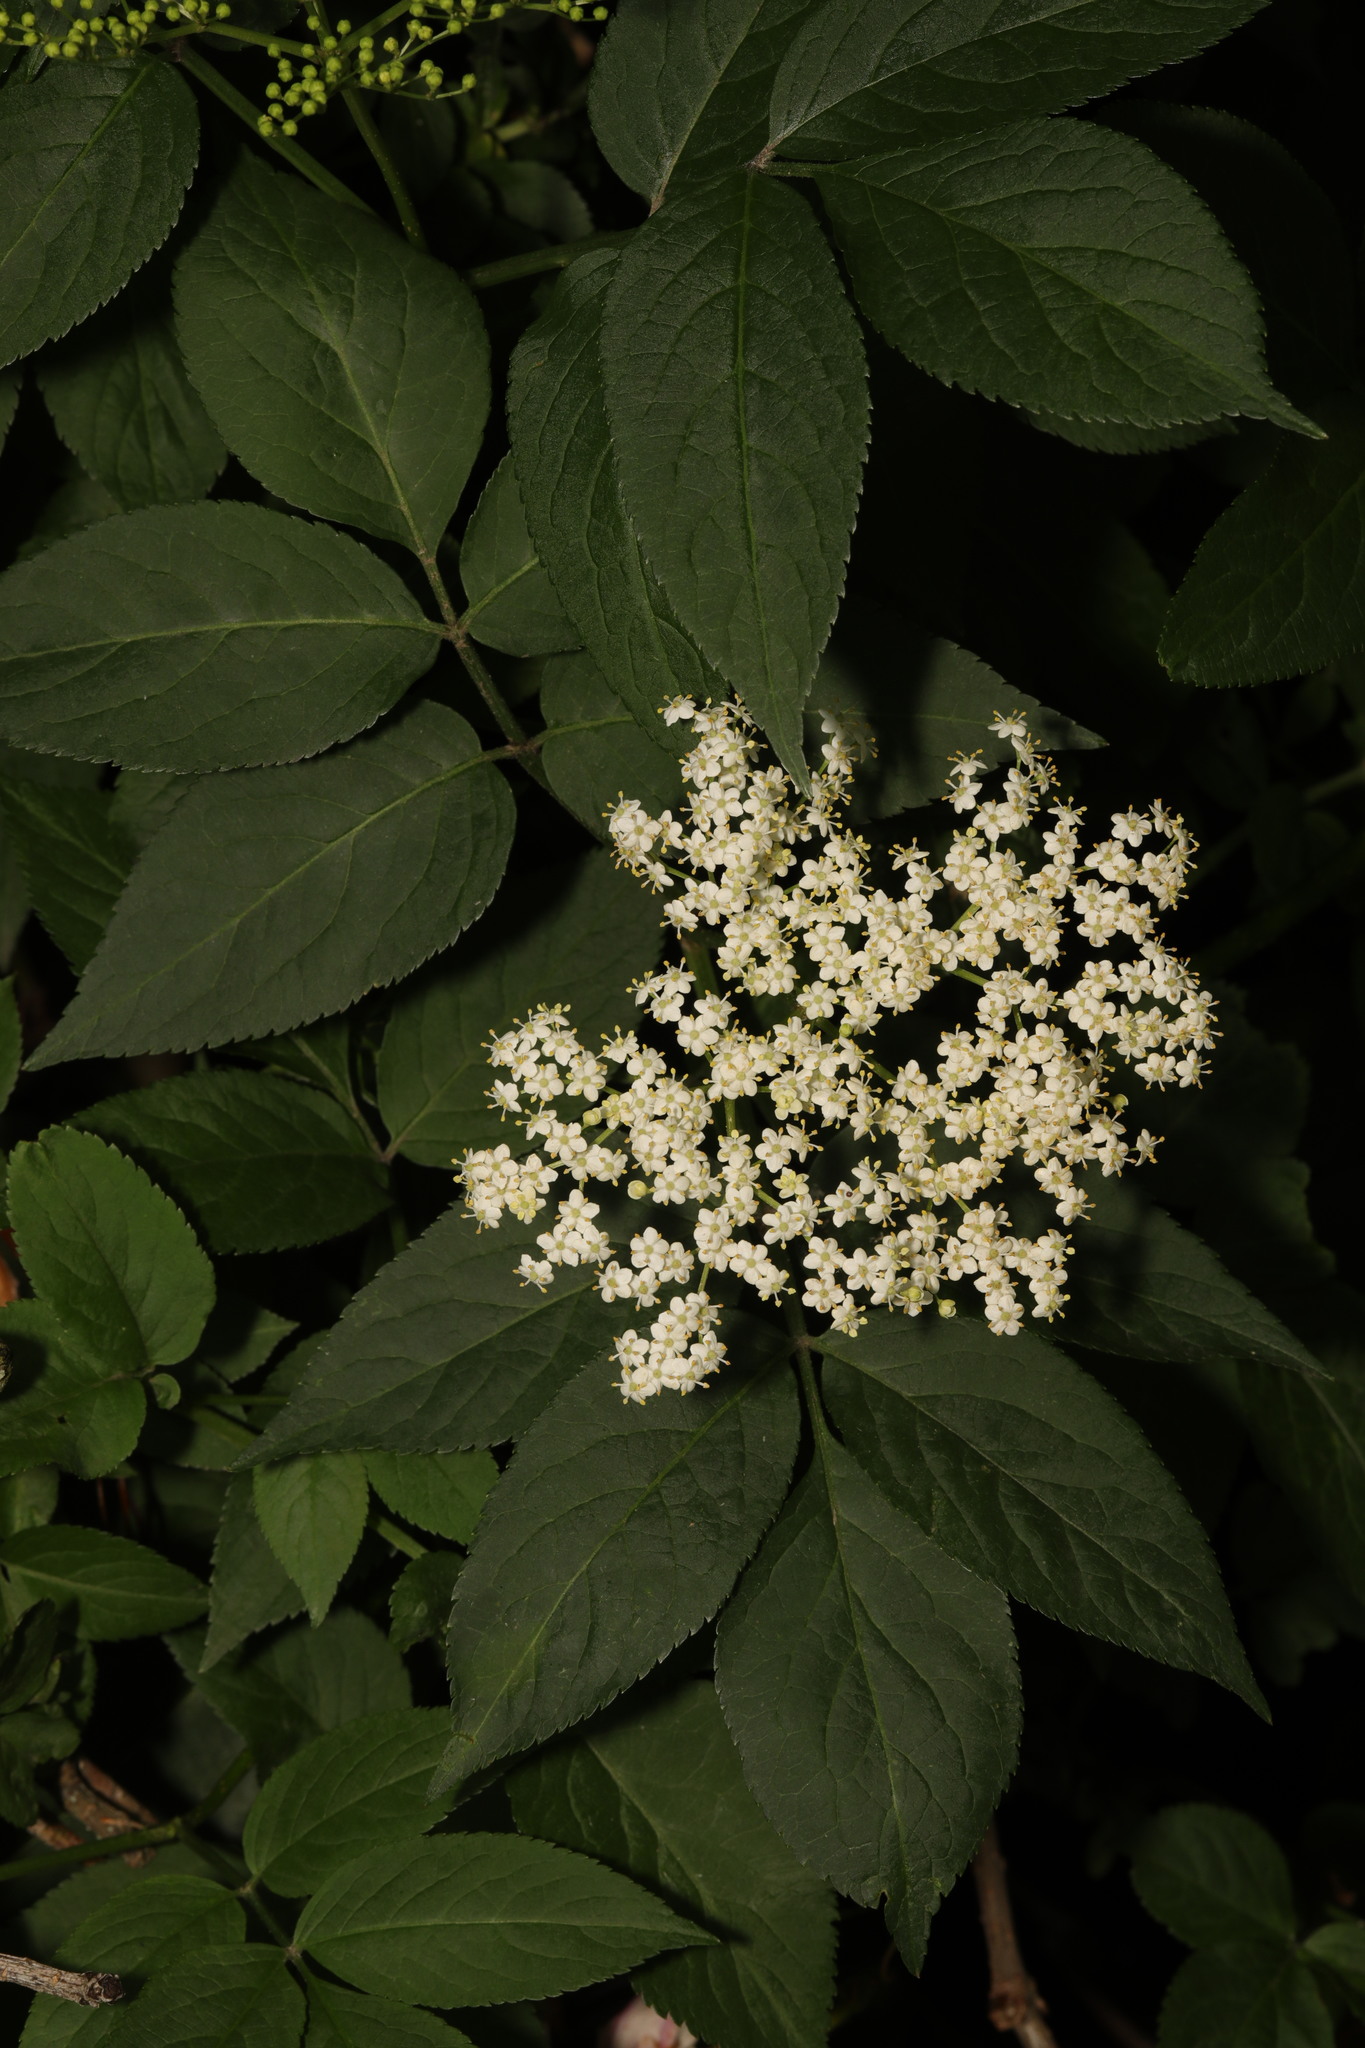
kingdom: Plantae
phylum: Tracheophyta
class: Magnoliopsida
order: Dipsacales
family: Viburnaceae
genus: Sambucus
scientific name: Sambucus nigra
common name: Elder
